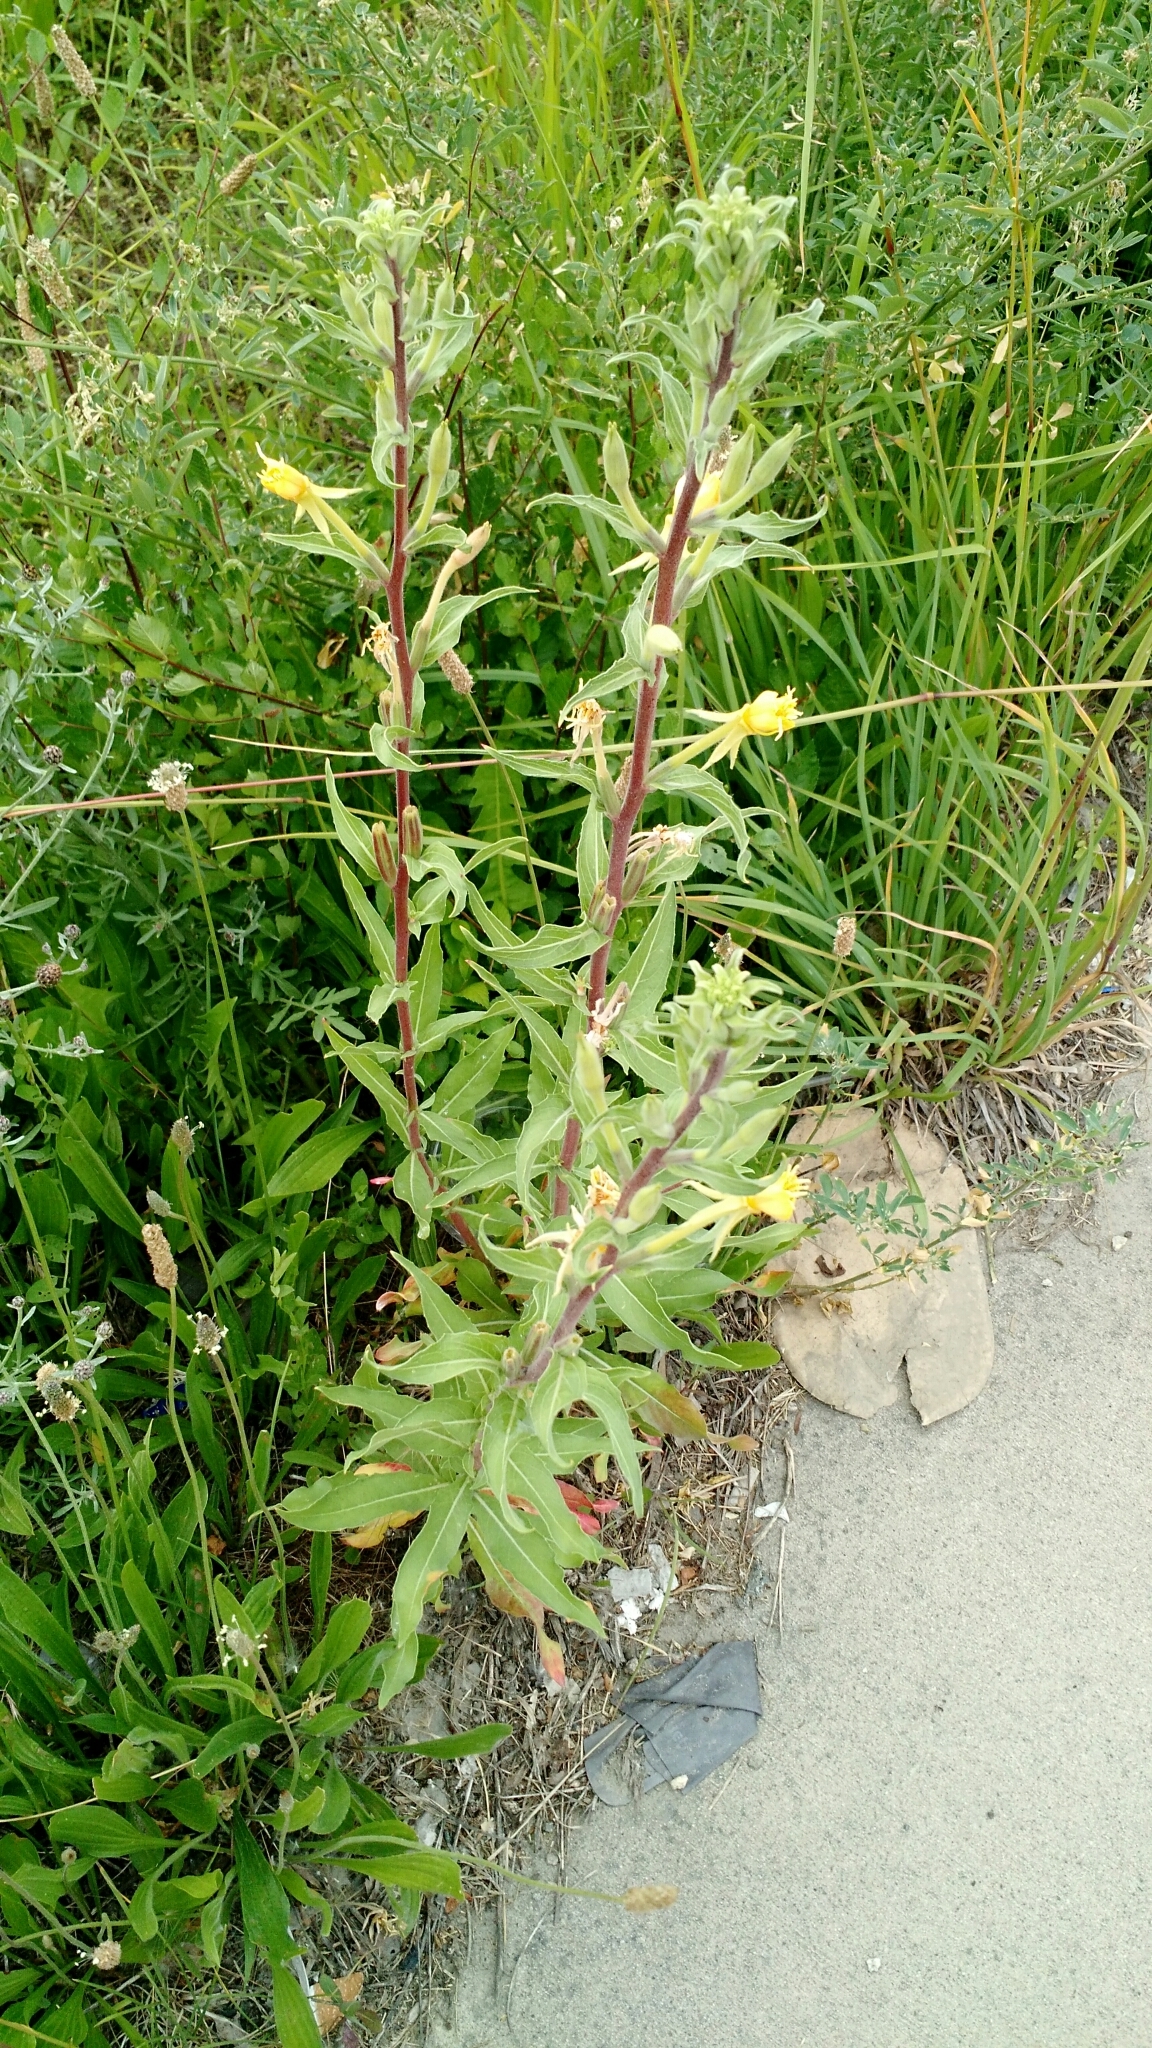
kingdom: Plantae
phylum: Tracheophyta
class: Magnoliopsida
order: Myrtales
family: Onagraceae
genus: Oenothera
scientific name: Oenothera villosa
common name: Hairy evening-primrose
